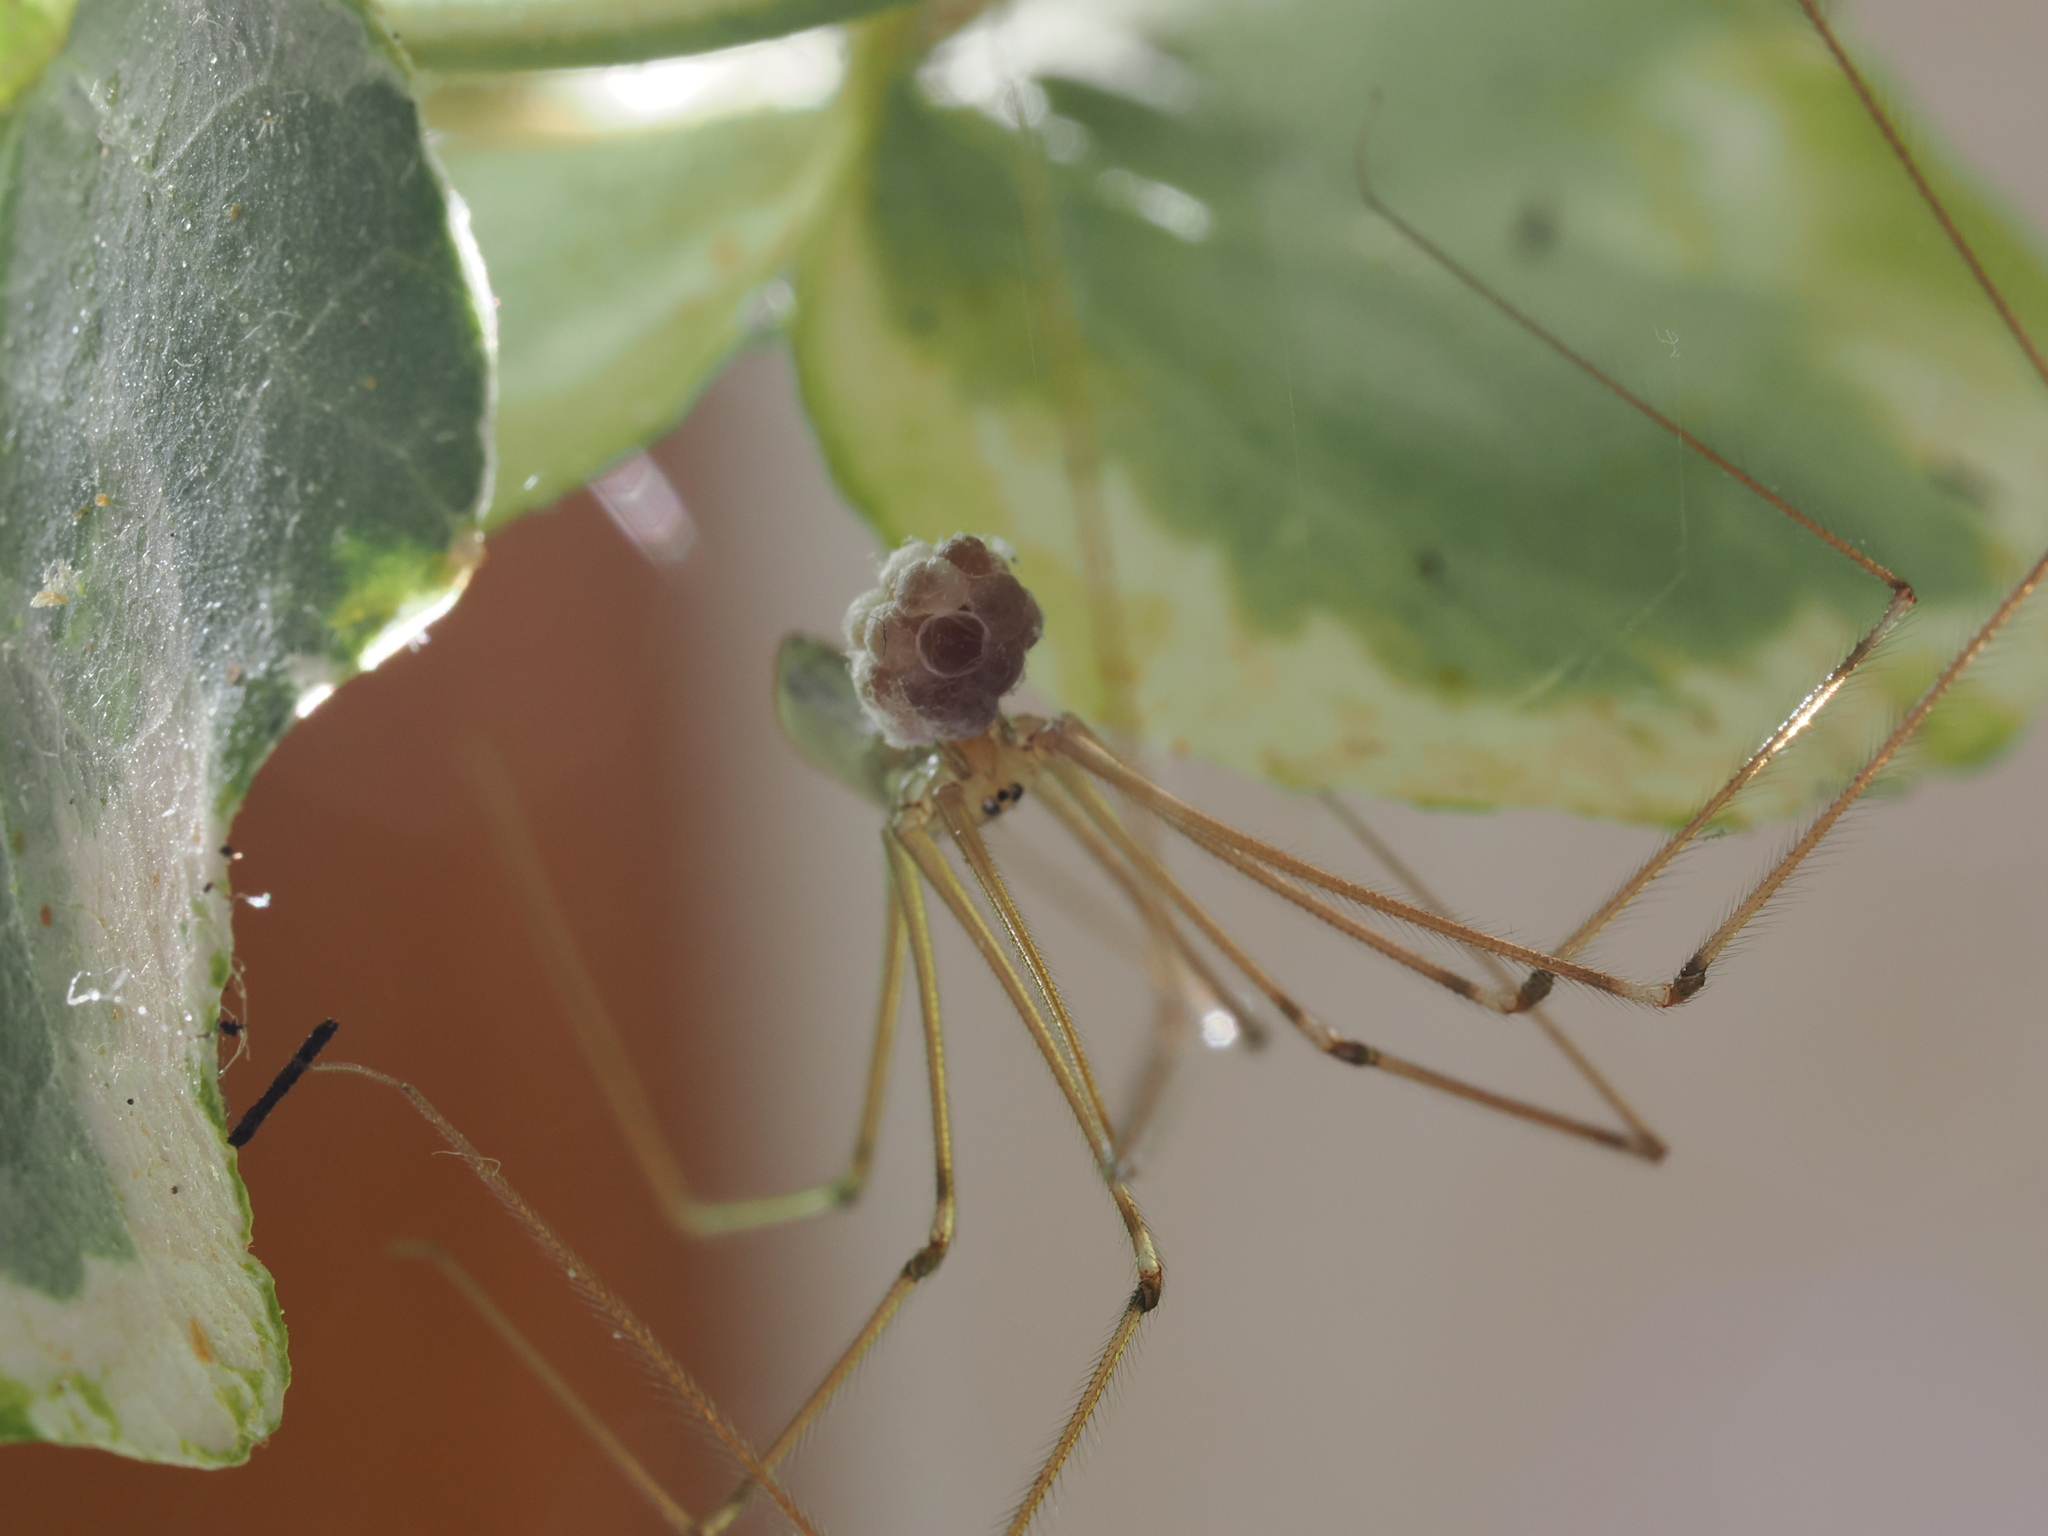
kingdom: Animalia
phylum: Arthropoda
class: Arachnida
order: Araneae
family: Pholcidae
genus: Pholcus
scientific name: Pholcus phalangioides
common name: Longbodied cellar spider
